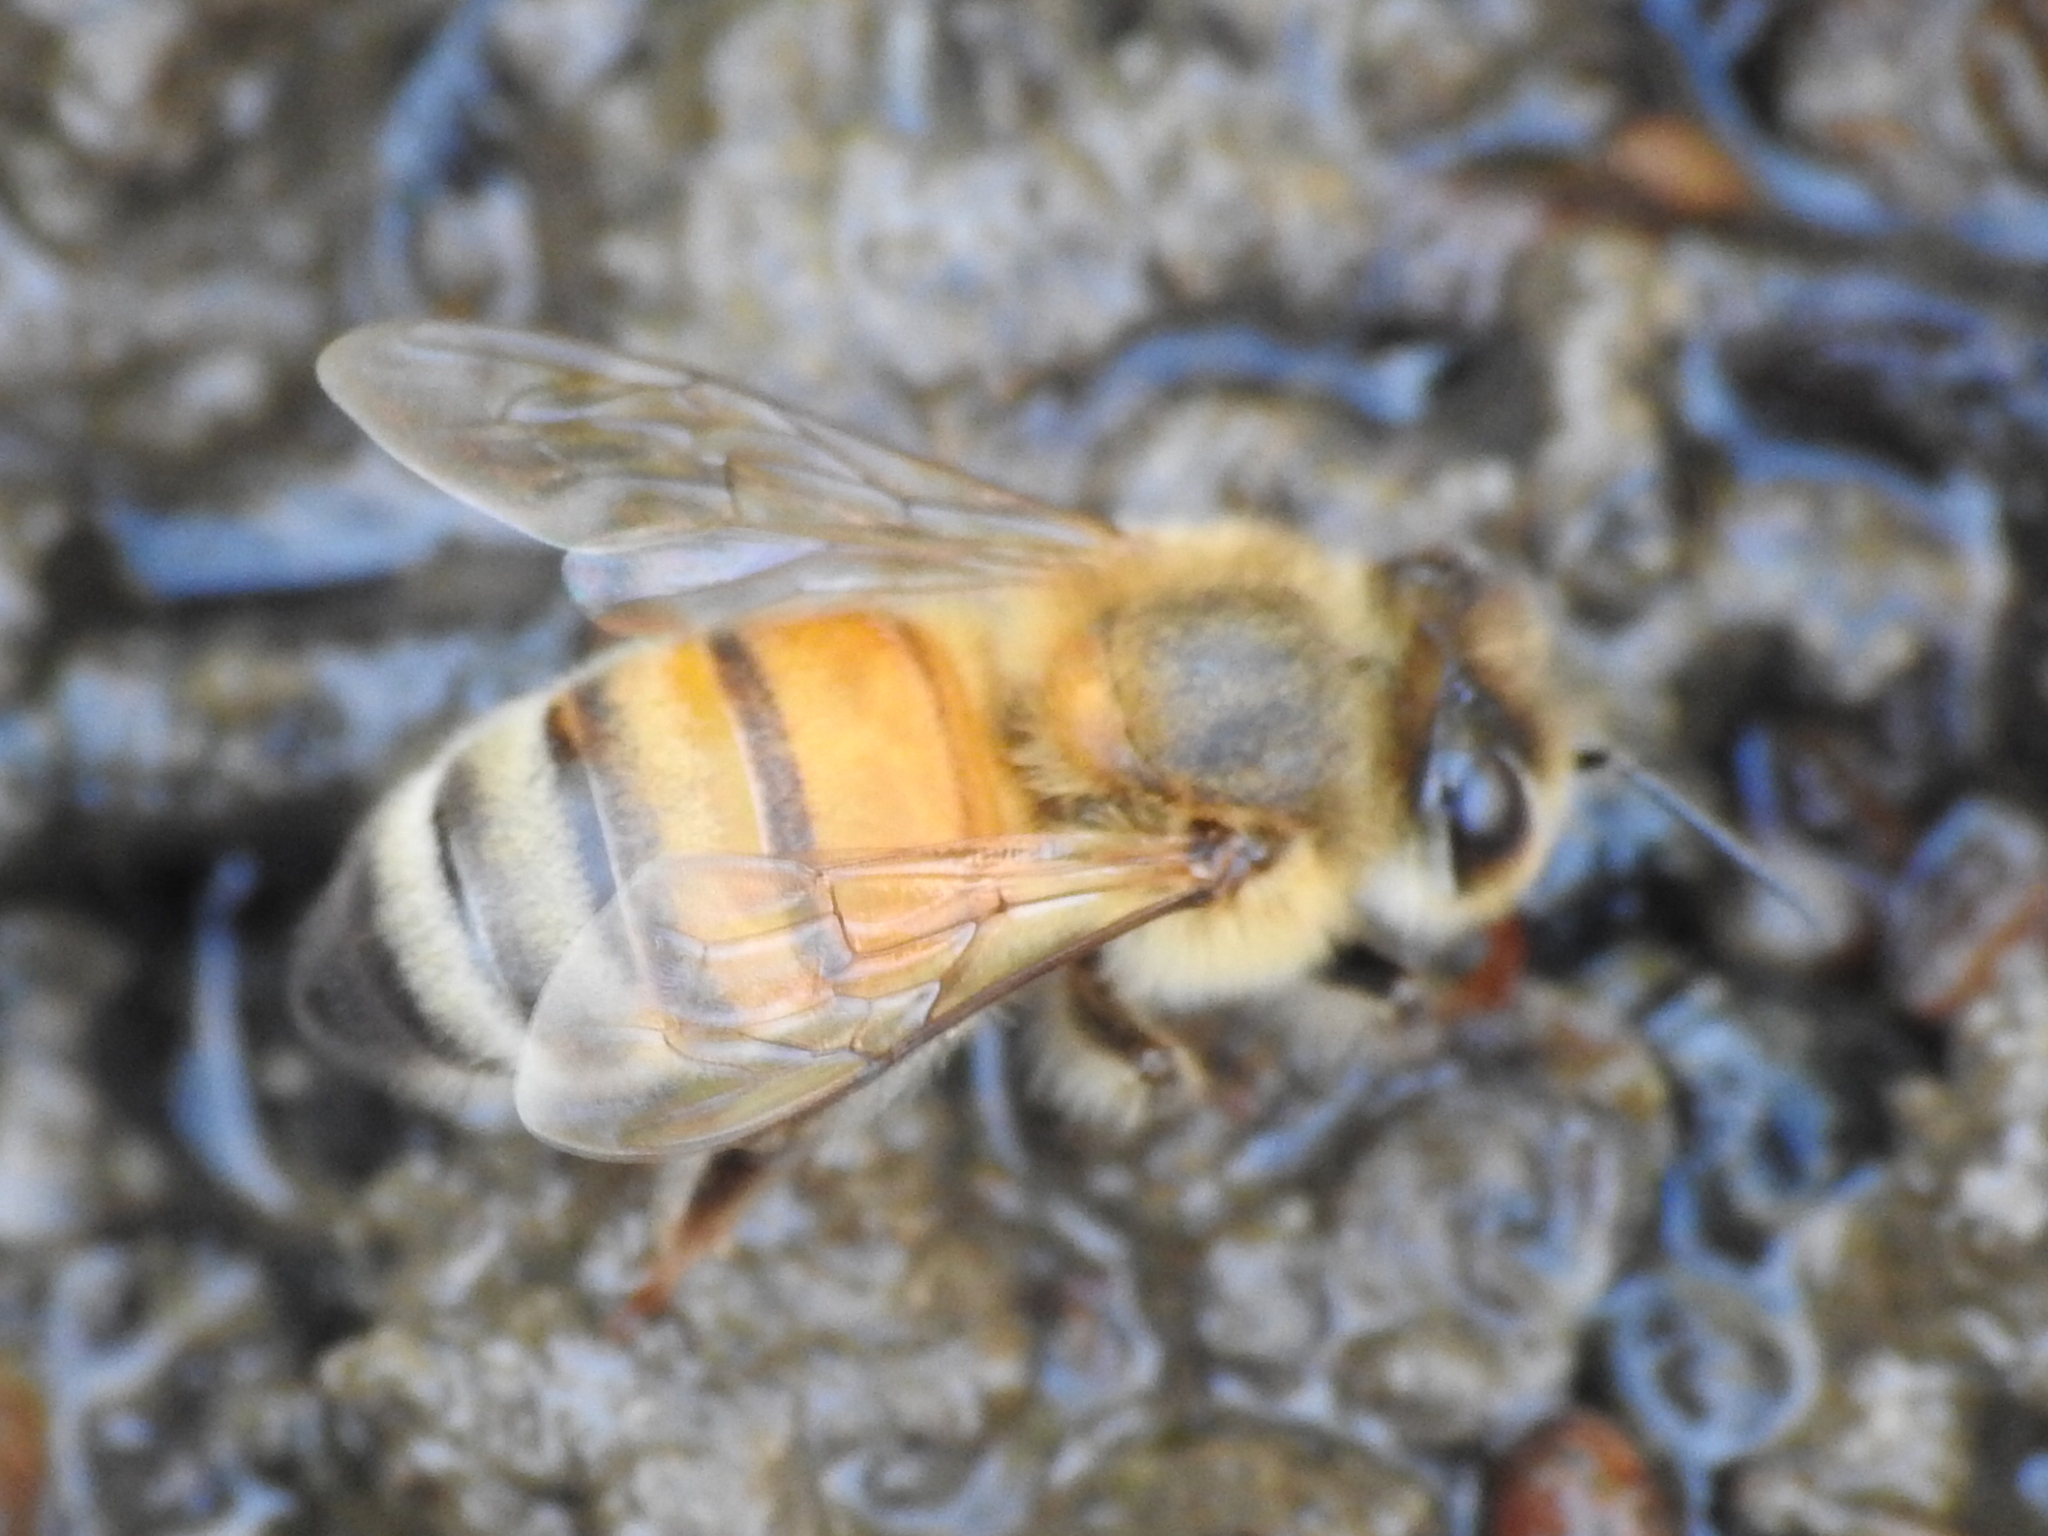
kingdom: Animalia
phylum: Arthropoda
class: Insecta
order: Hymenoptera
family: Apidae
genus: Apis
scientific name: Apis mellifera
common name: Honey bee
